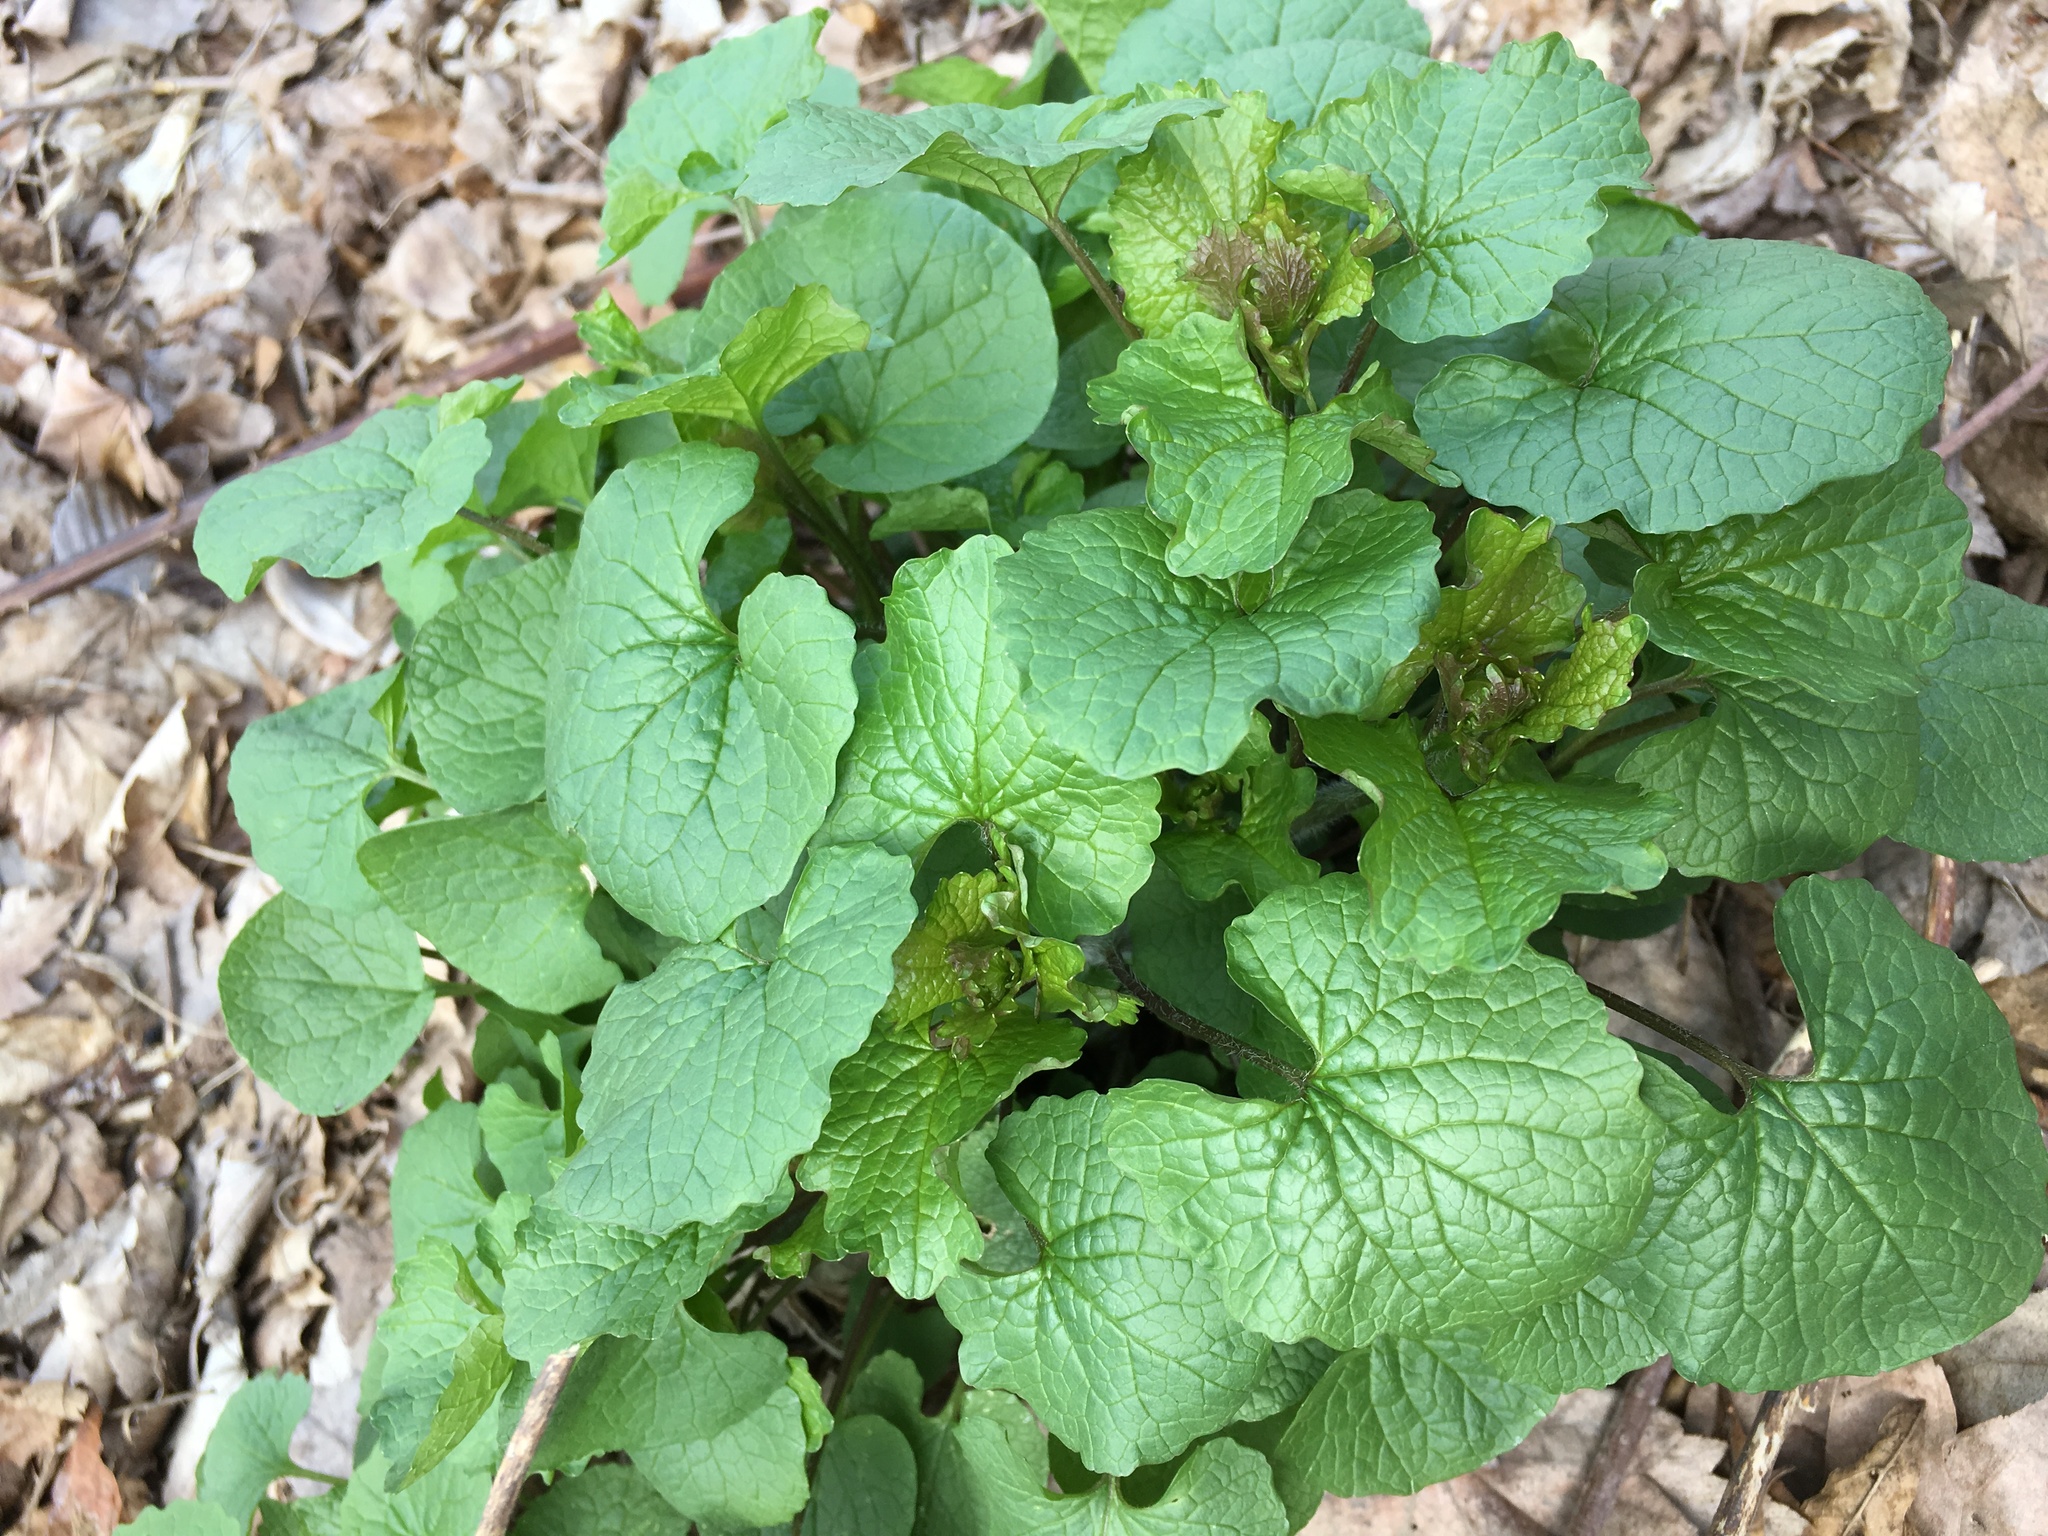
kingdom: Plantae
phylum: Tracheophyta
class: Magnoliopsida
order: Brassicales
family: Brassicaceae
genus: Alliaria
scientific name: Alliaria petiolata
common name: Garlic mustard
